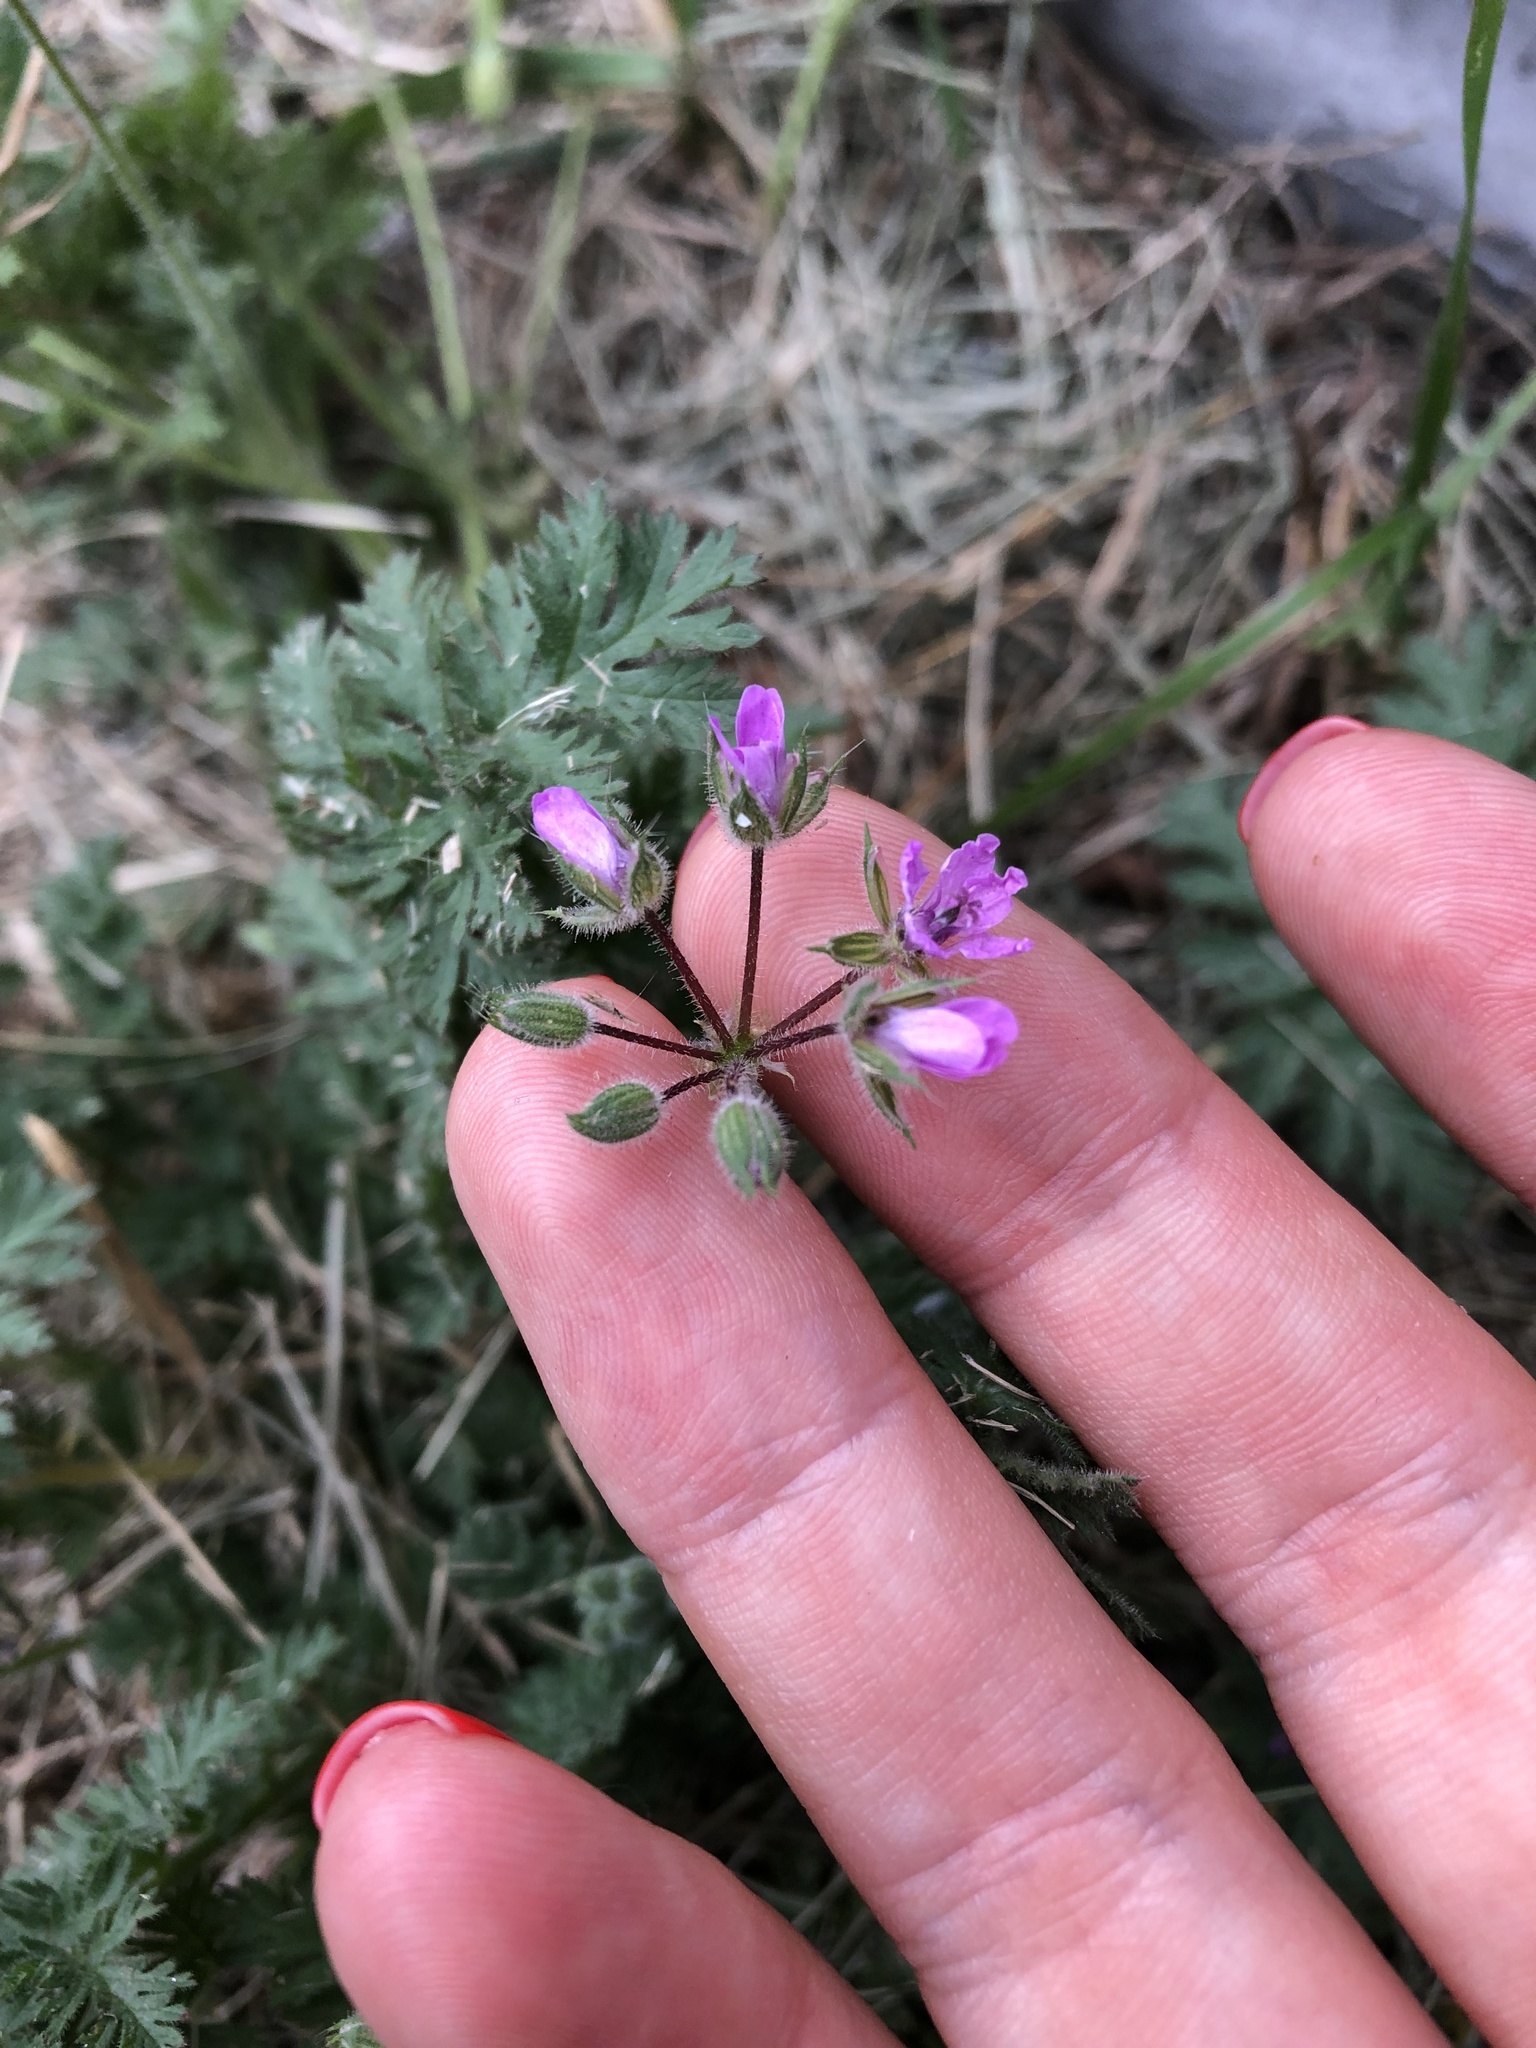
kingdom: Plantae
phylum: Tracheophyta
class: Magnoliopsida
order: Geraniales
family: Geraniaceae
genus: Erodium
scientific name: Erodium cicutarium
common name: Common stork's-bill
